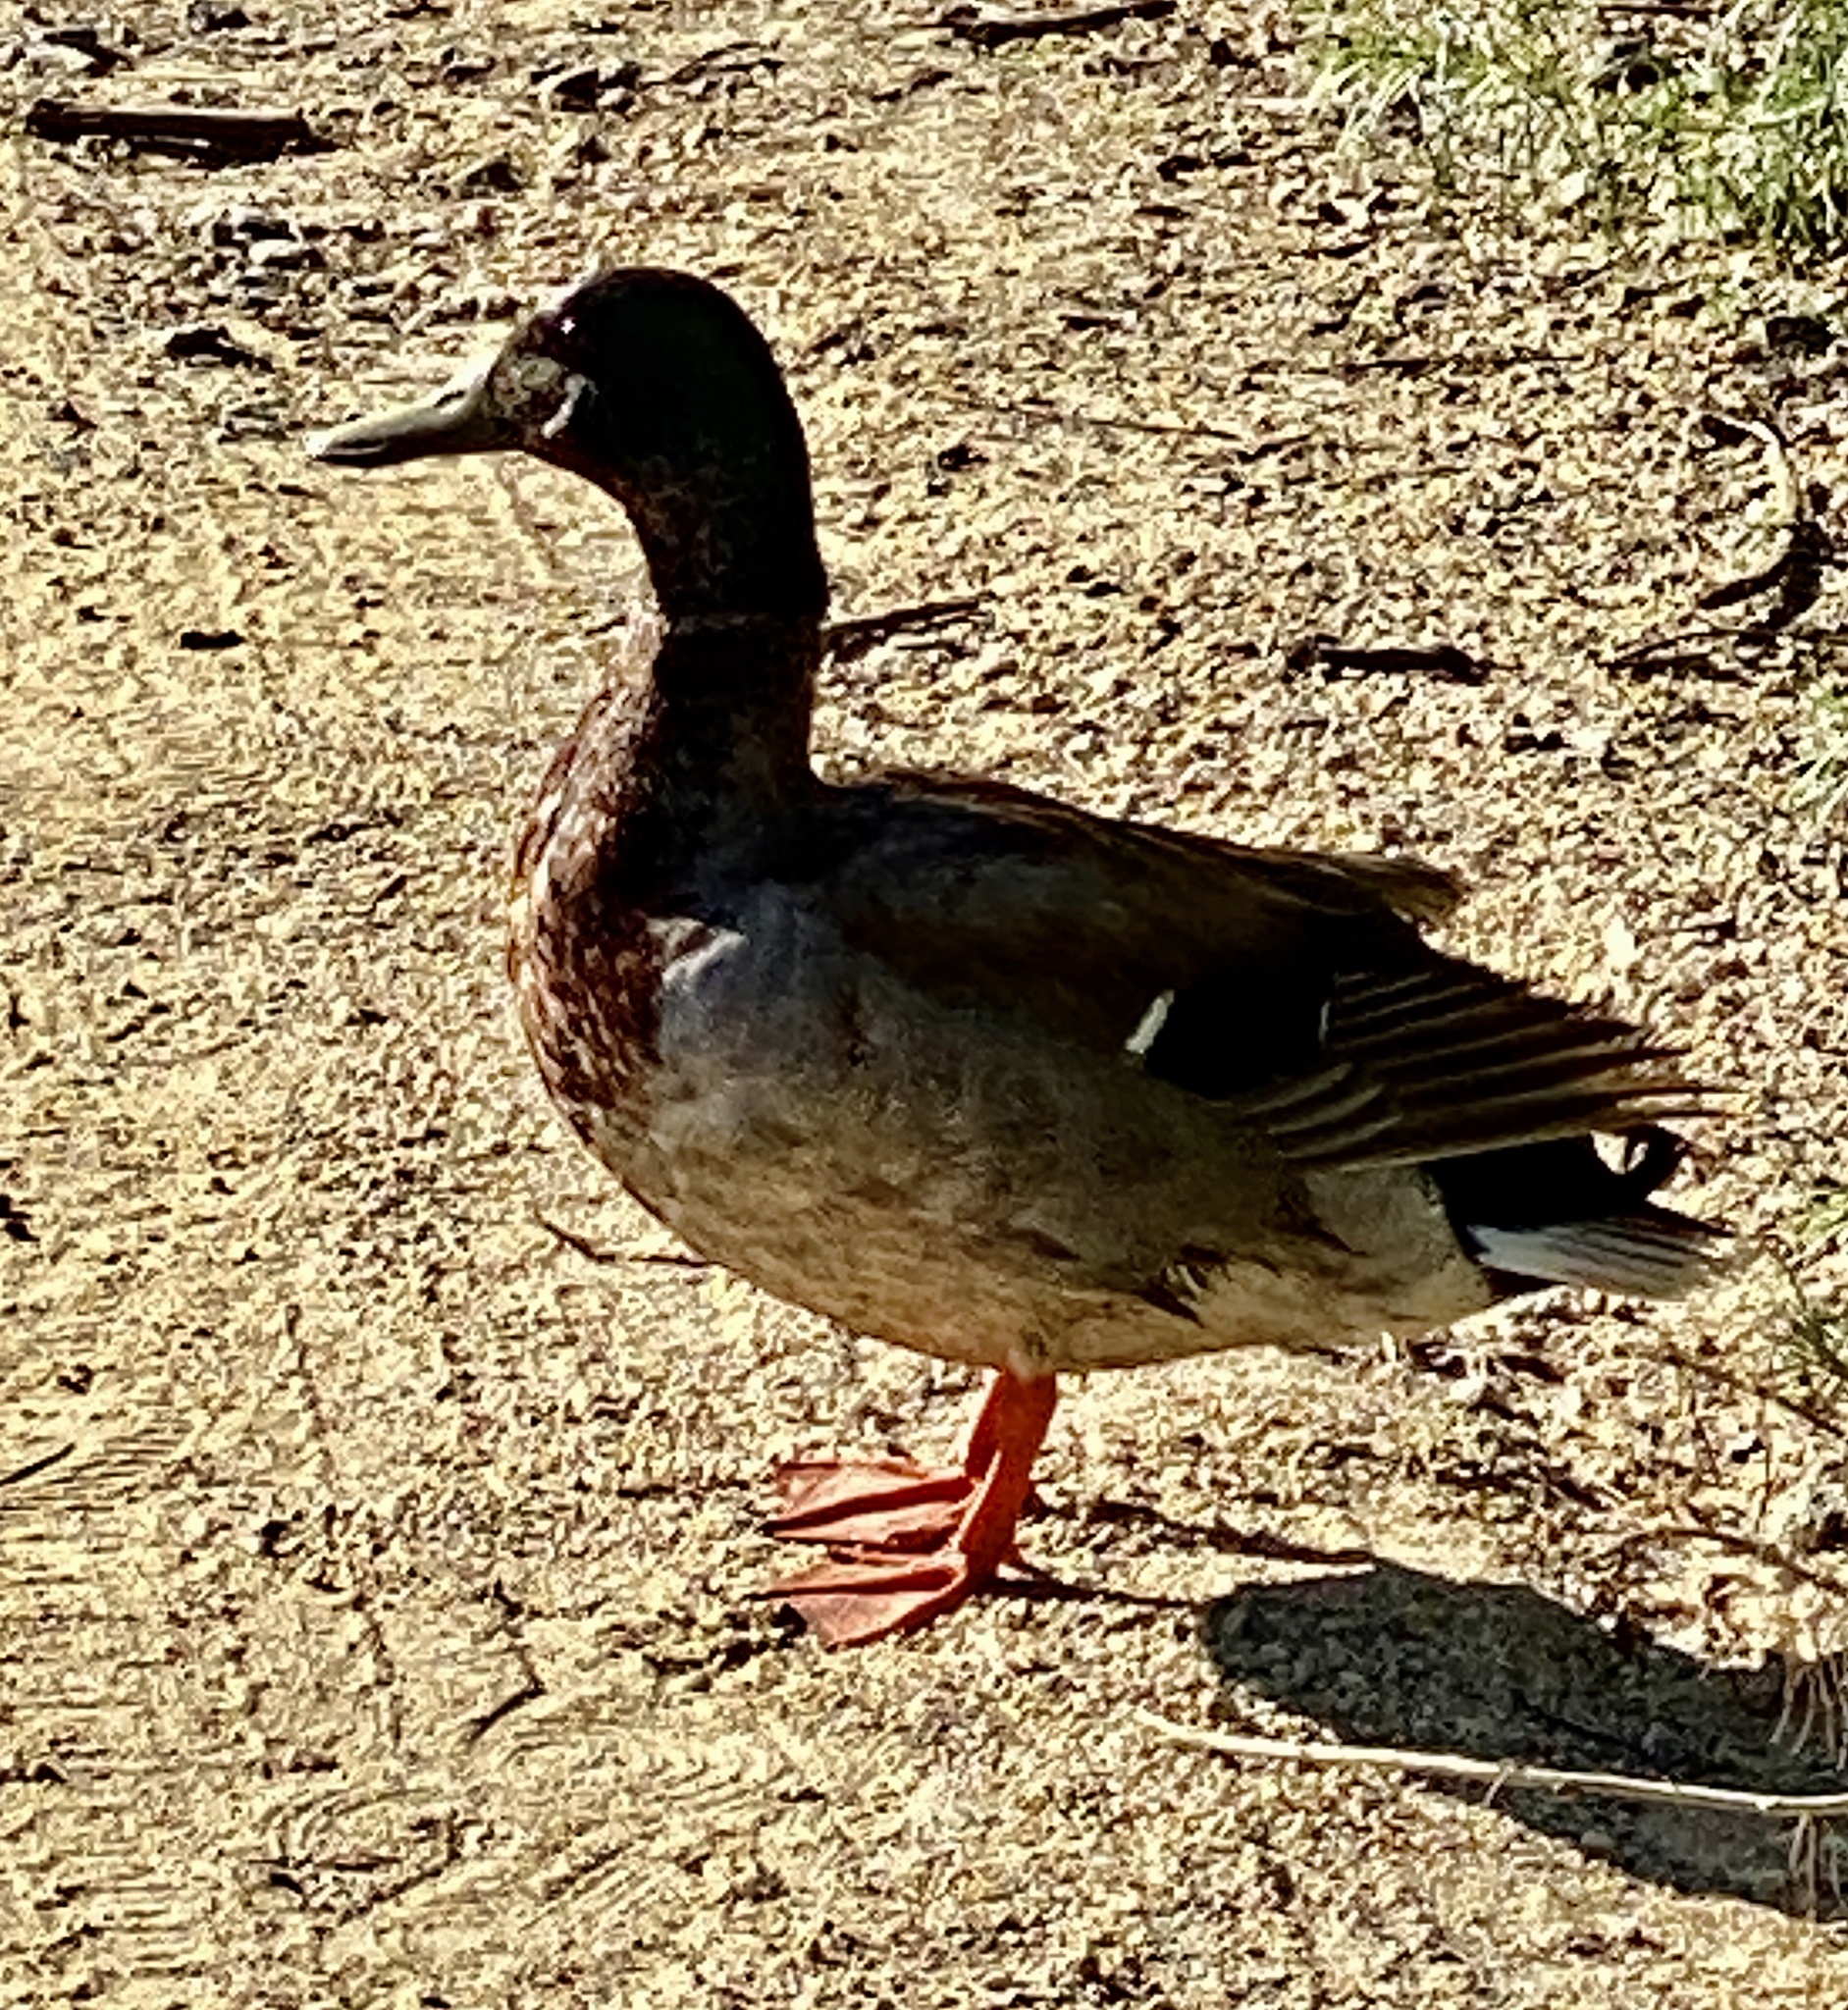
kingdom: Animalia
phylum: Chordata
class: Aves
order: Anseriformes
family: Anatidae
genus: Anas
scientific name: Anas platyrhynchos
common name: Mallard
